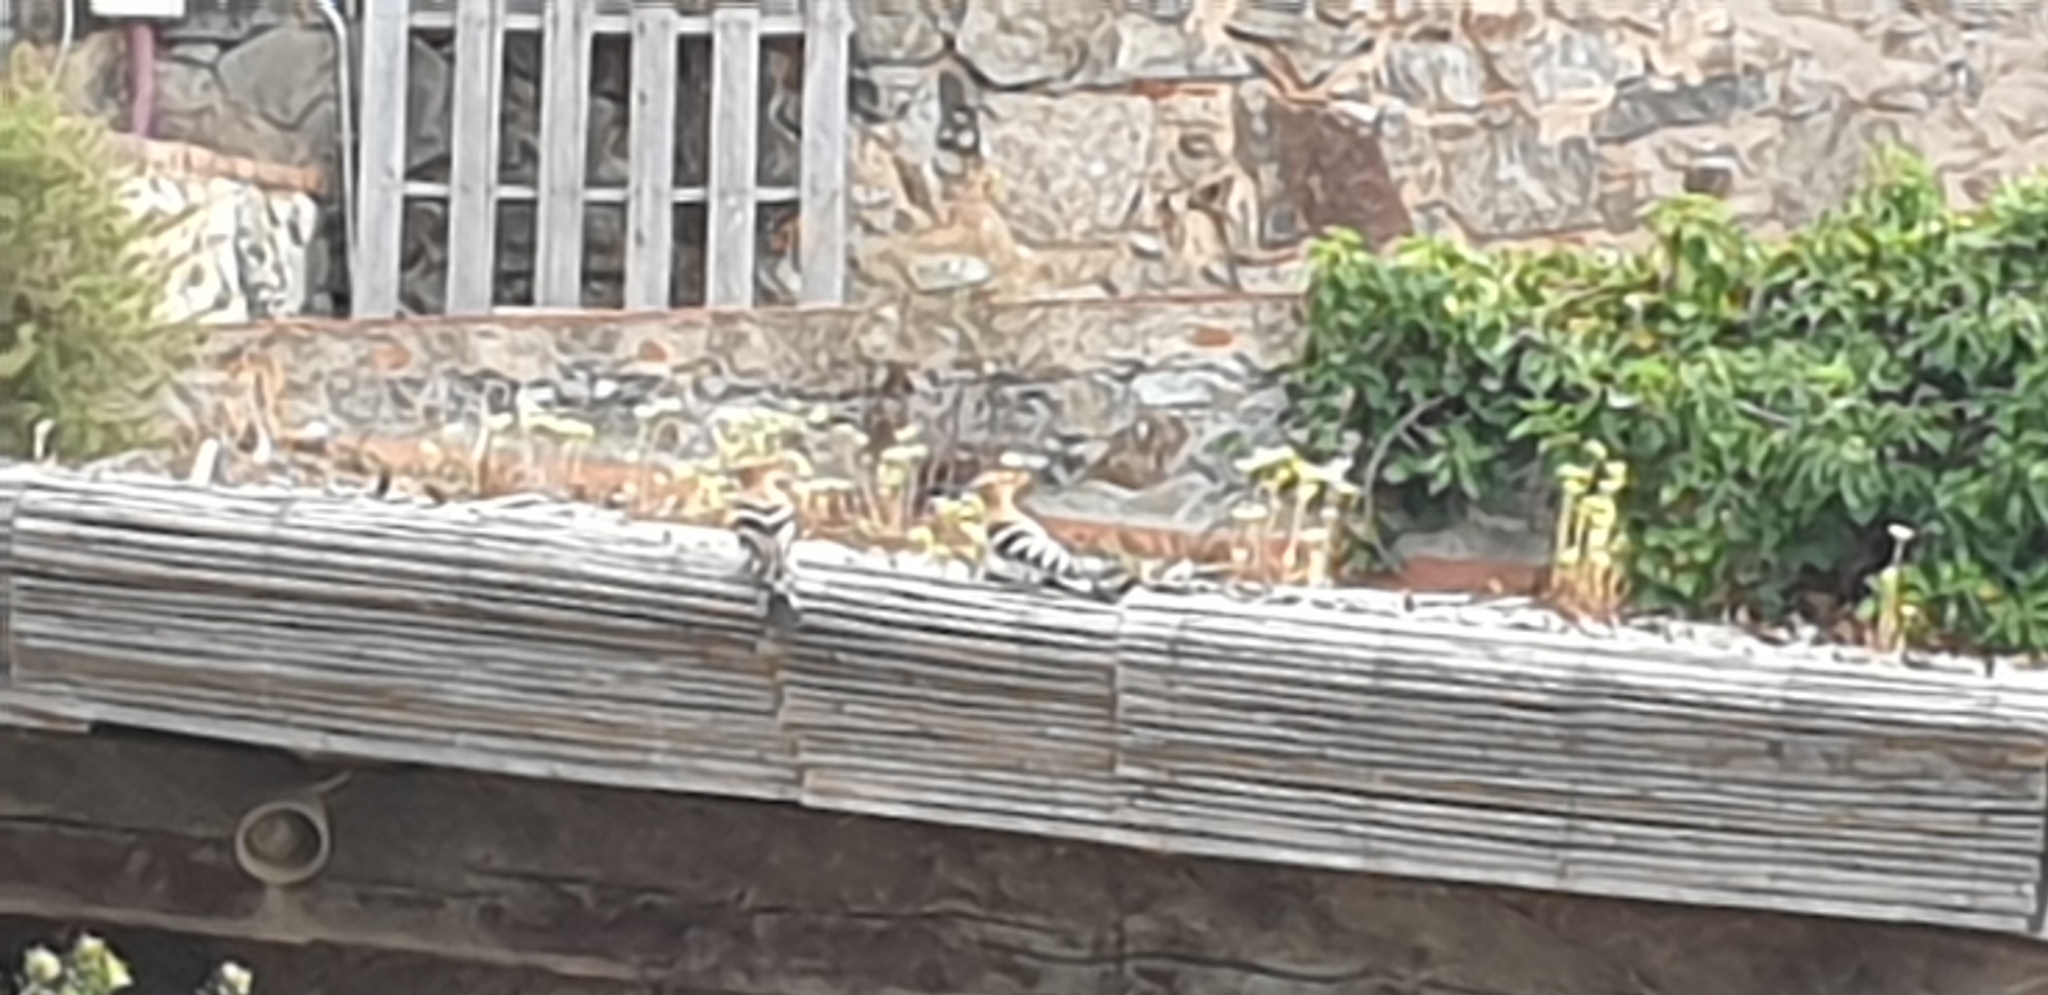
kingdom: Animalia
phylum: Chordata
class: Aves
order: Bucerotiformes
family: Upupidae
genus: Upupa
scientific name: Upupa epops
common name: Eurasian hoopoe
